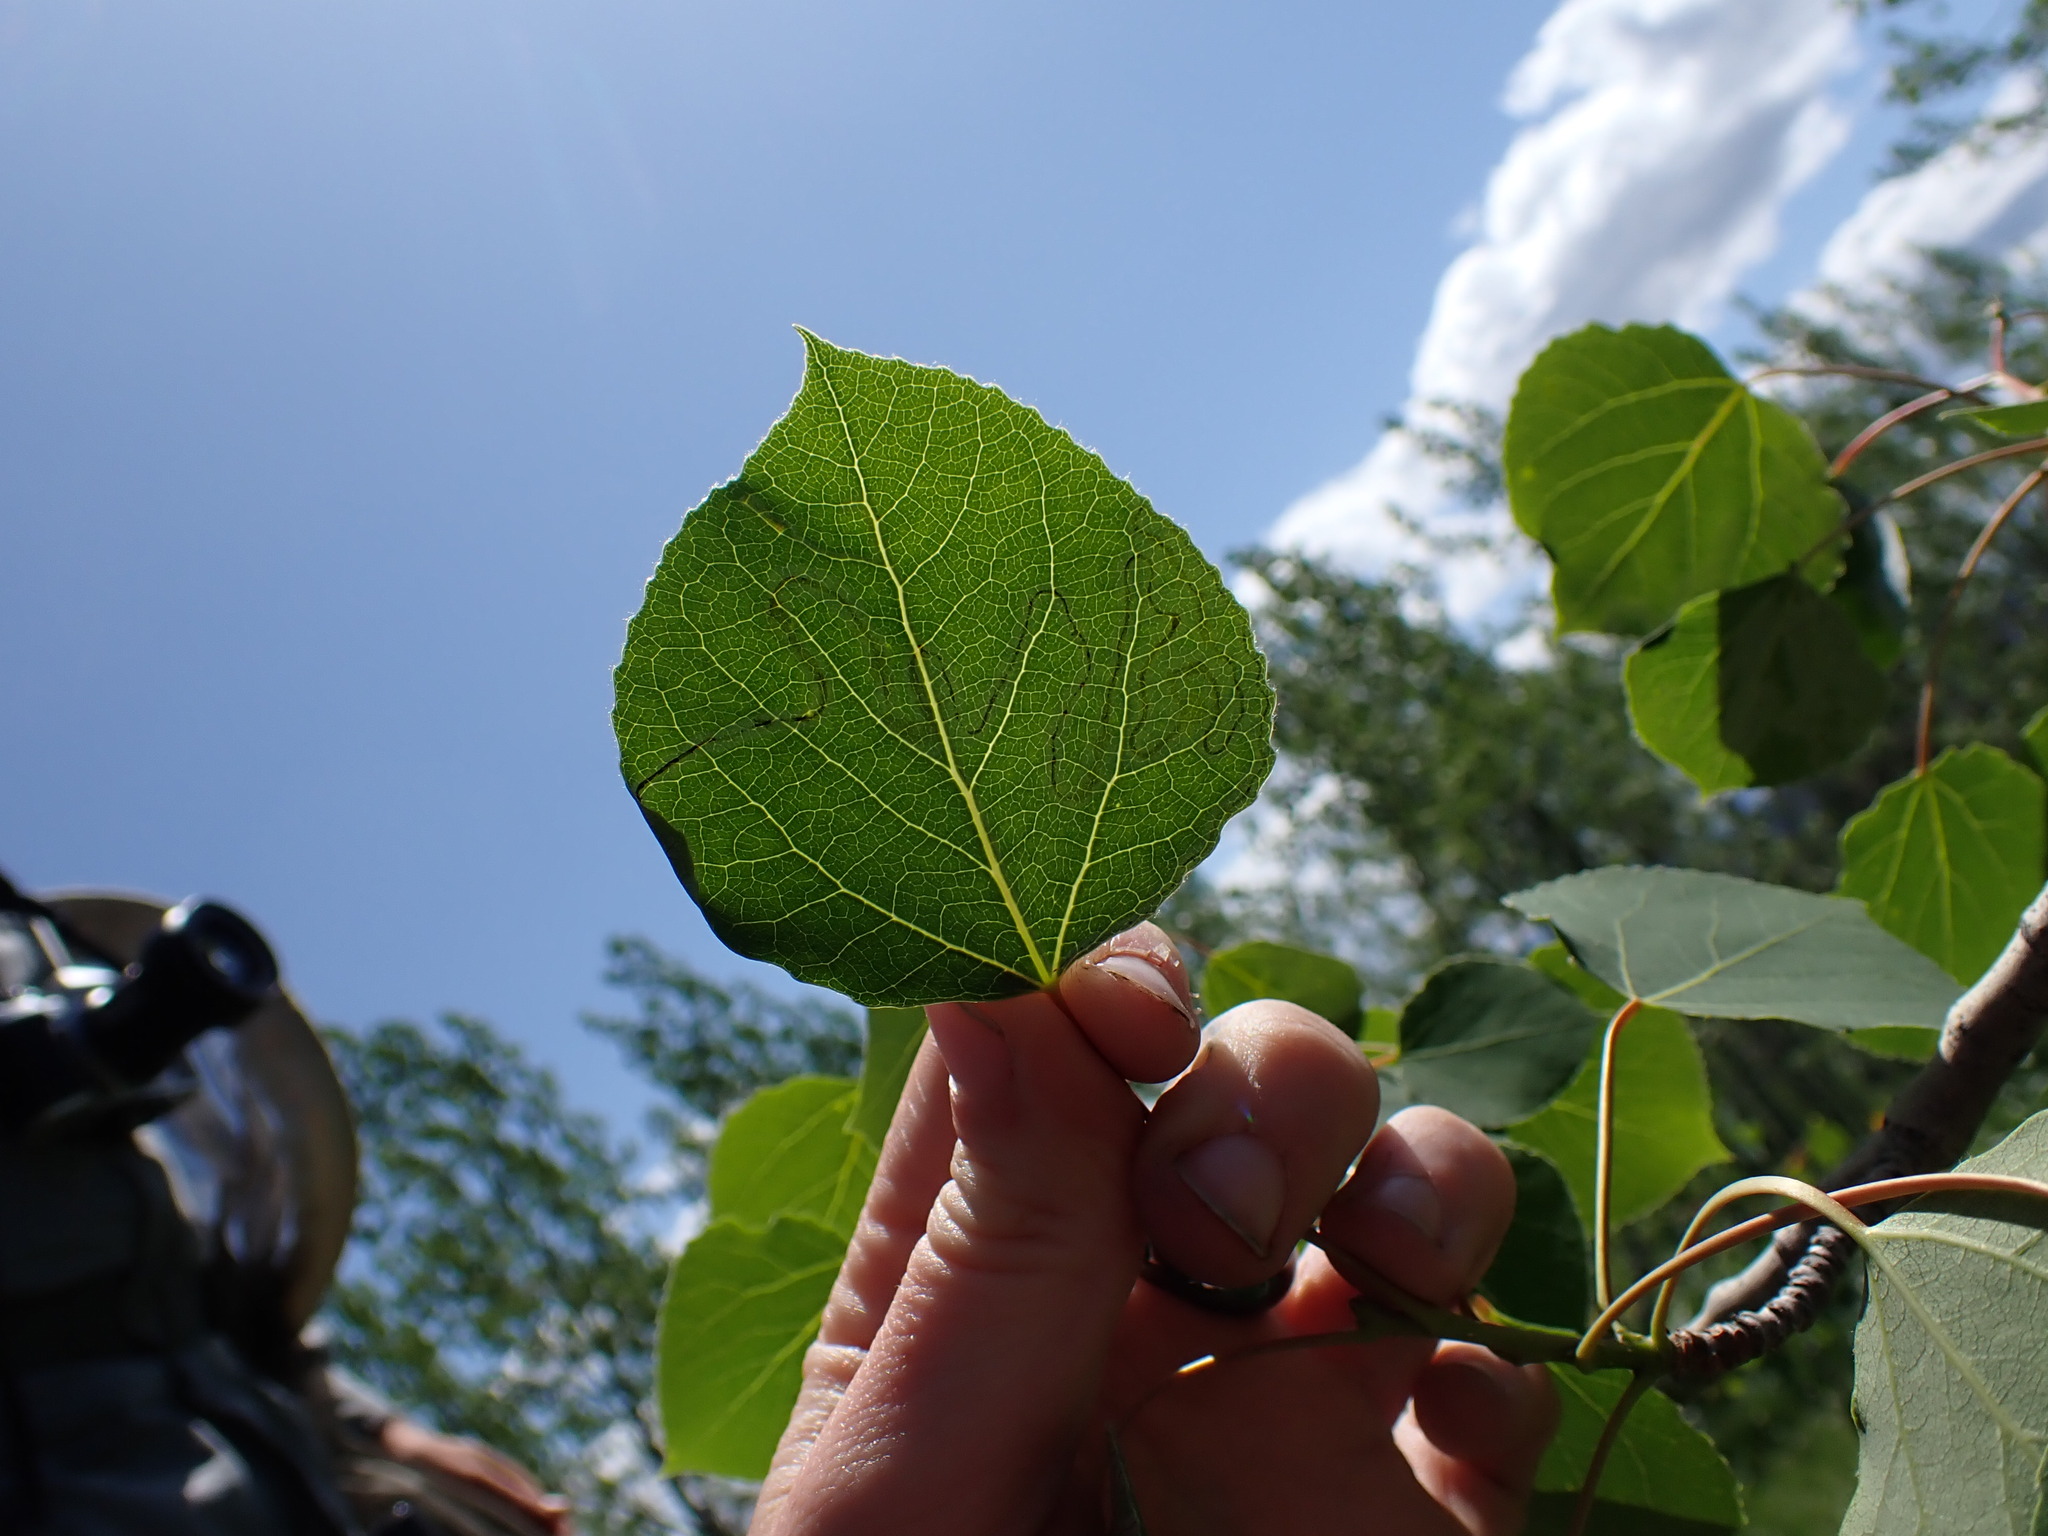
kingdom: Animalia
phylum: Arthropoda
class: Insecta
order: Lepidoptera
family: Gracillariidae
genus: Phyllocnistis
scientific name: Phyllocnistis populiella
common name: Aspen serpentine leafminer moth
